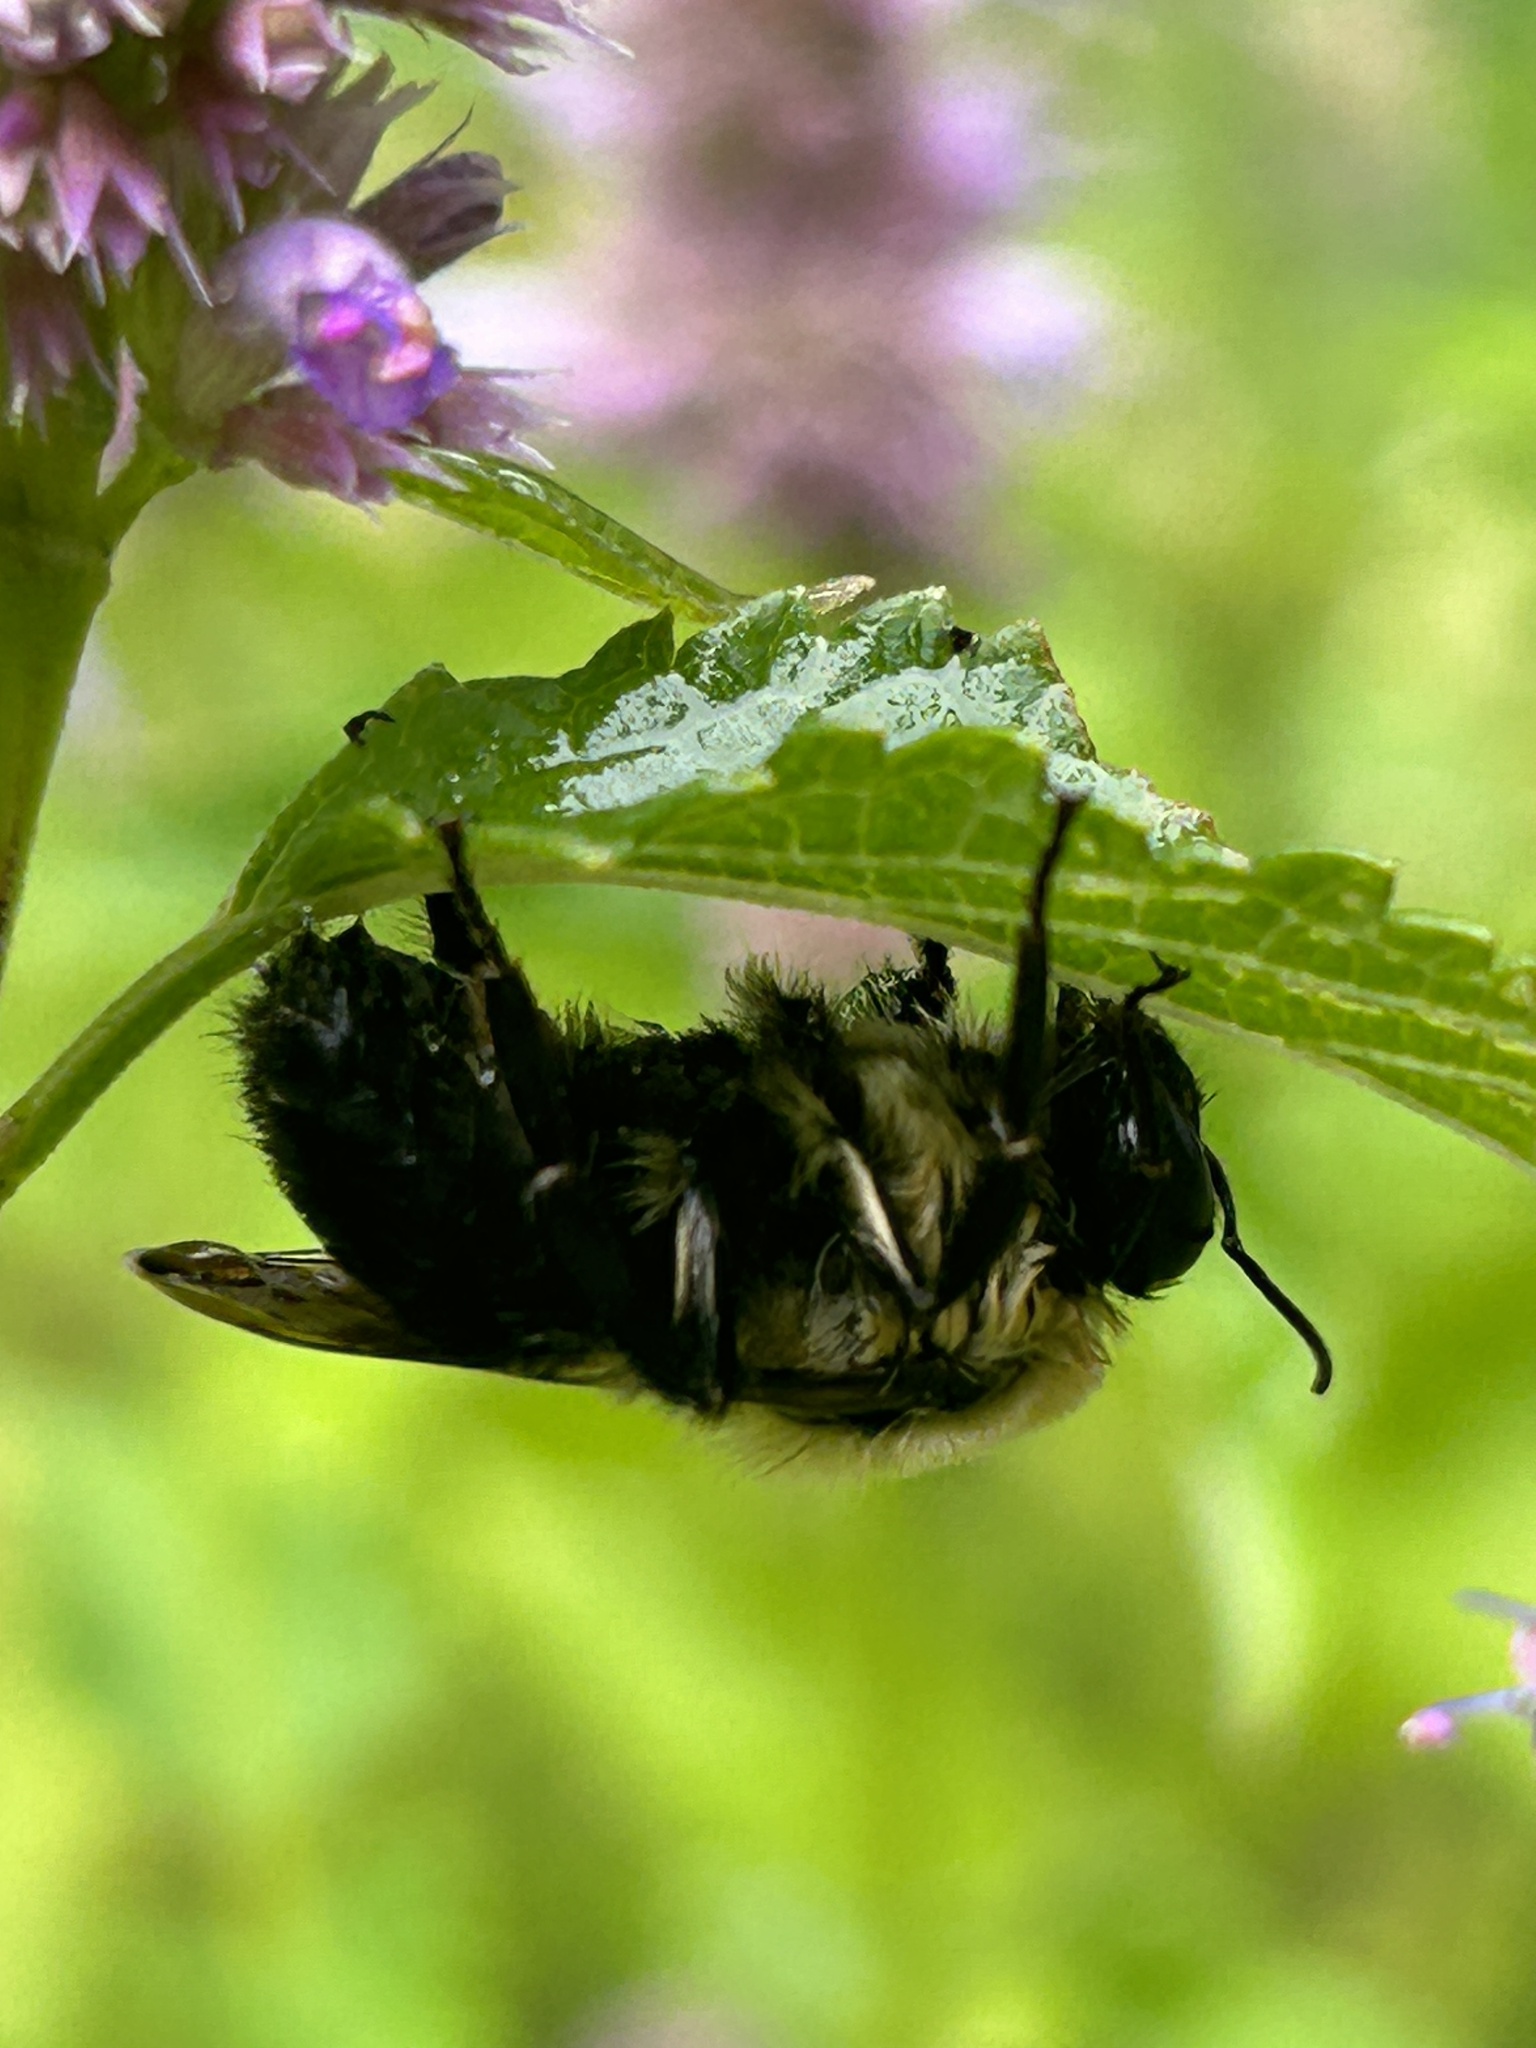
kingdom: Animalia
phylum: Arthropoda
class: Insecta
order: Hymenoptera
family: Apidae
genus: Bombus
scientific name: Bombus griseocollis
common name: Brown-belted bumble bee
